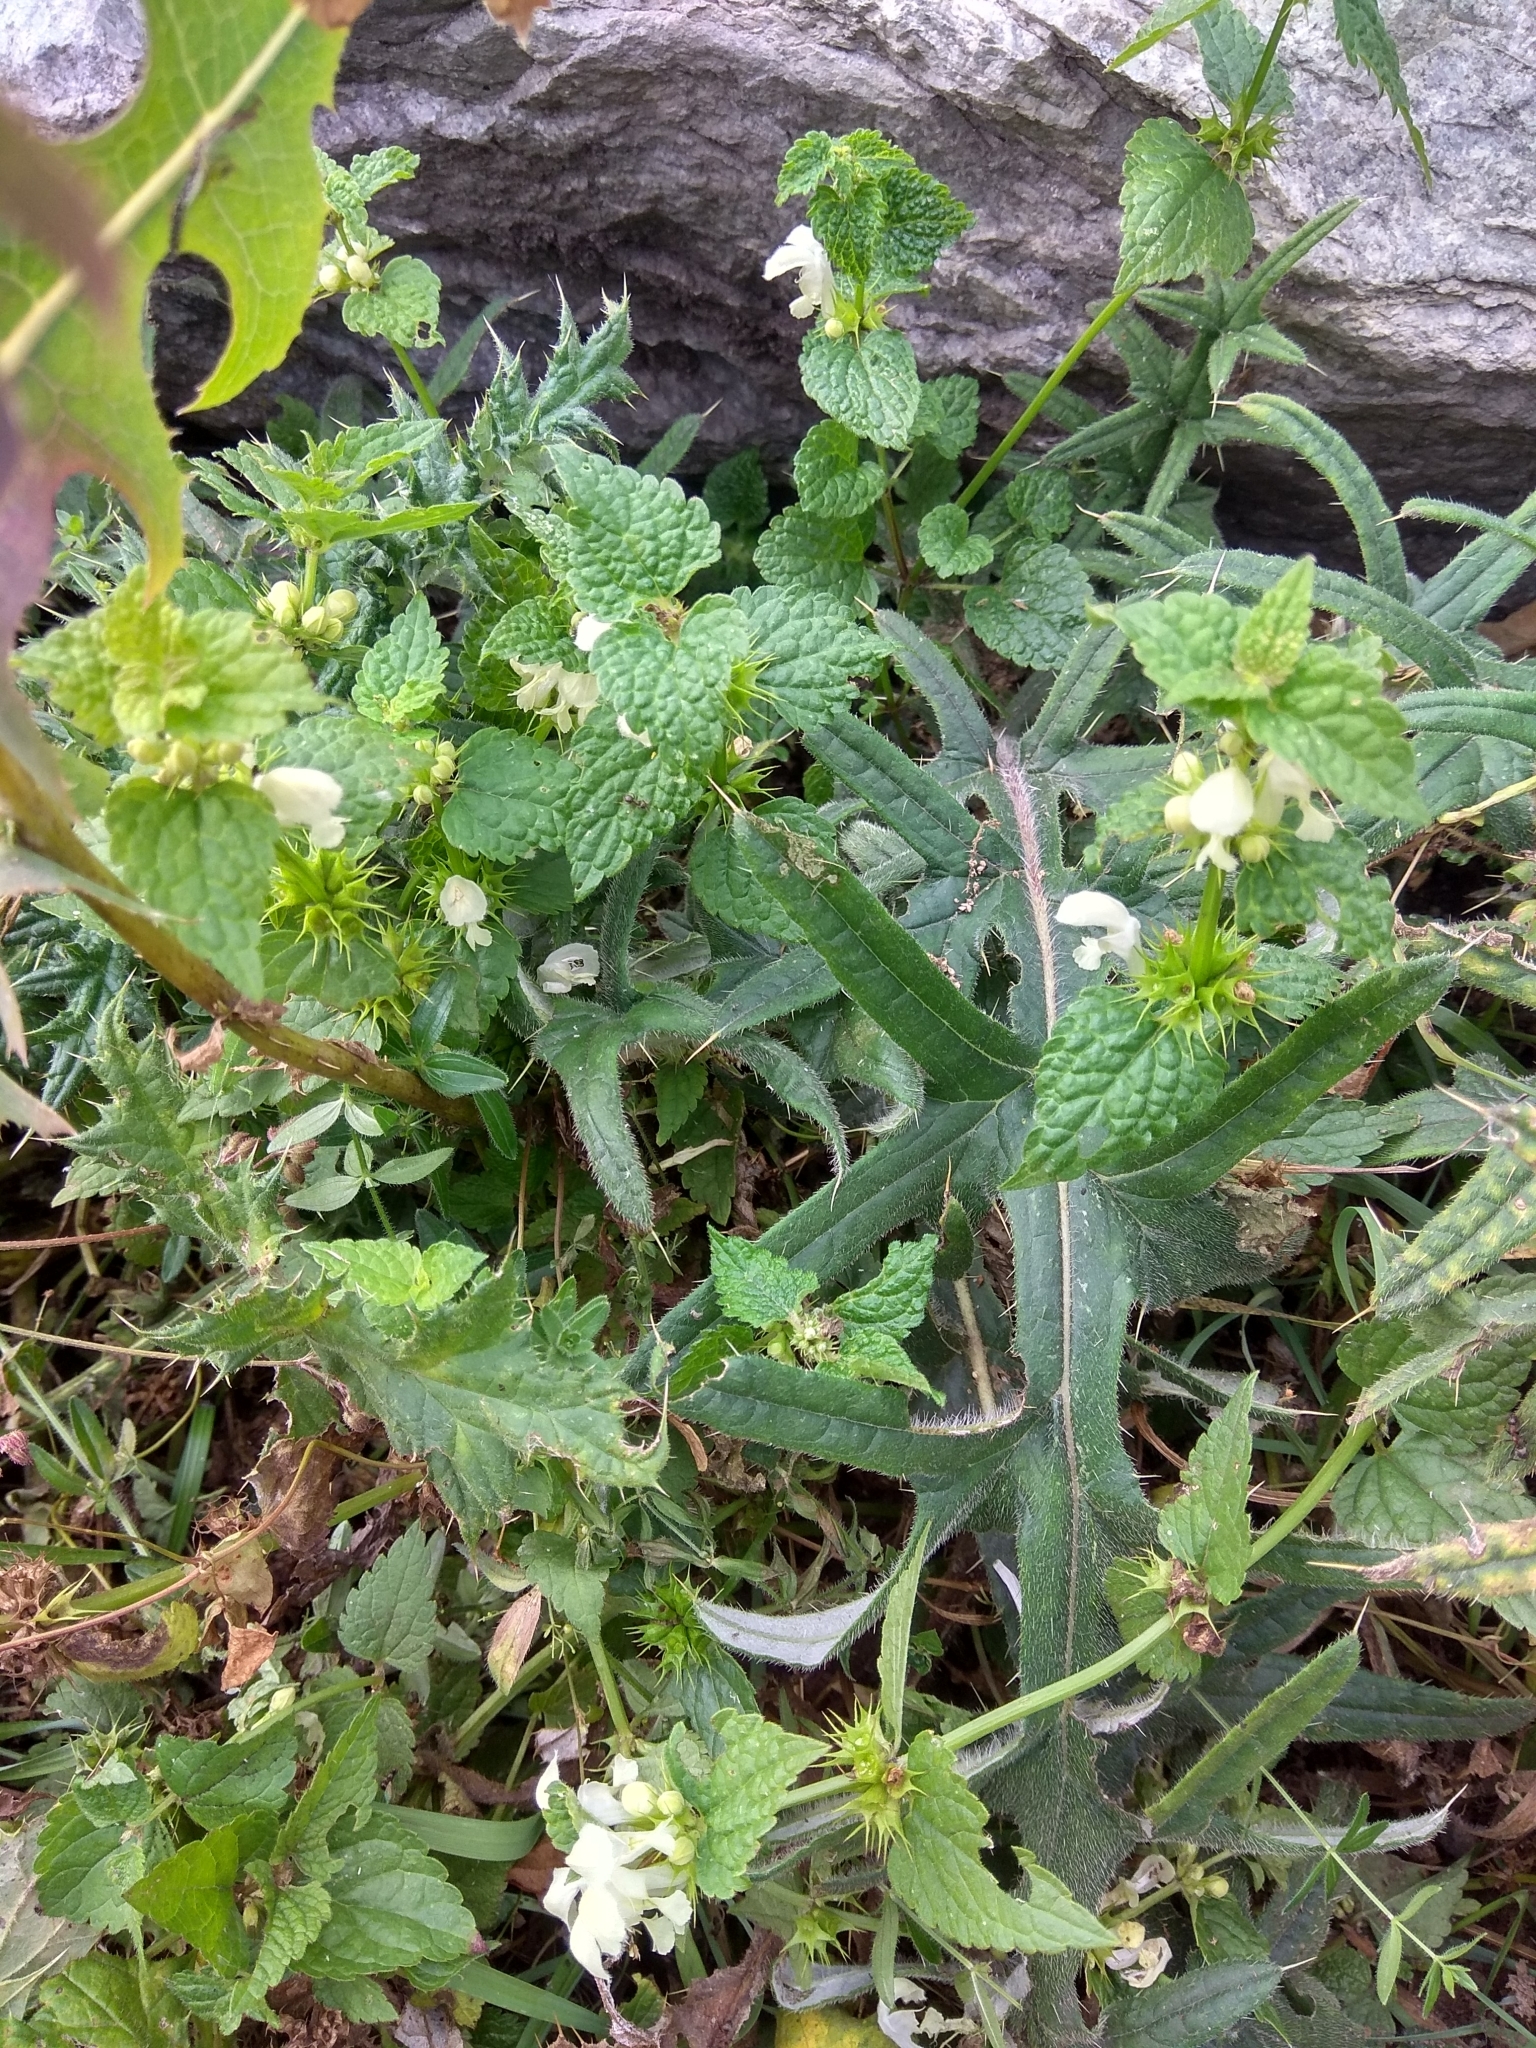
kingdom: Plantae
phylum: Tracheophyta
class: Magnoliopsida
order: Lamiales
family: Lamiaceae
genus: Lamium
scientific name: Lamium album
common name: White dead-nettle
